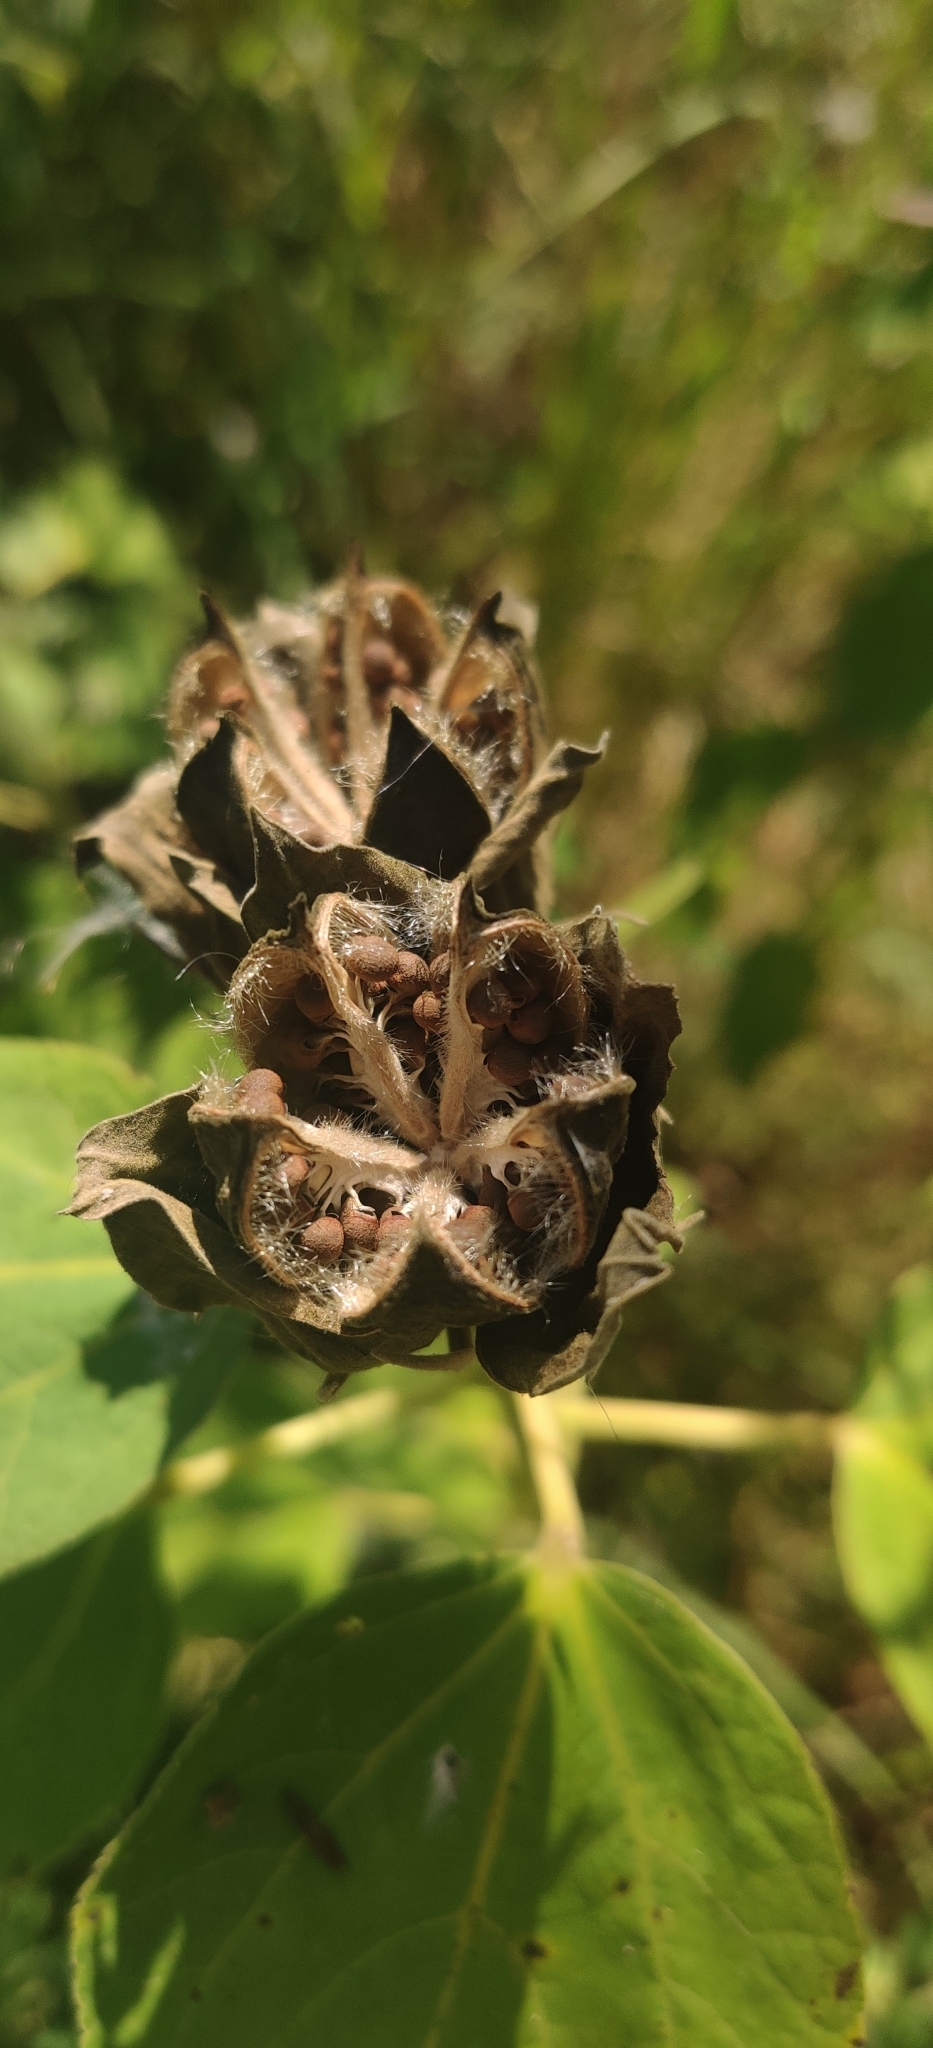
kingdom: Plantae
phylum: Tracheophyta
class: Magnoliopsida
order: Malvales
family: Malvaceae
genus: Hibiscus
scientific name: Hibiscus moscheutos
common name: Common rose-mallow
